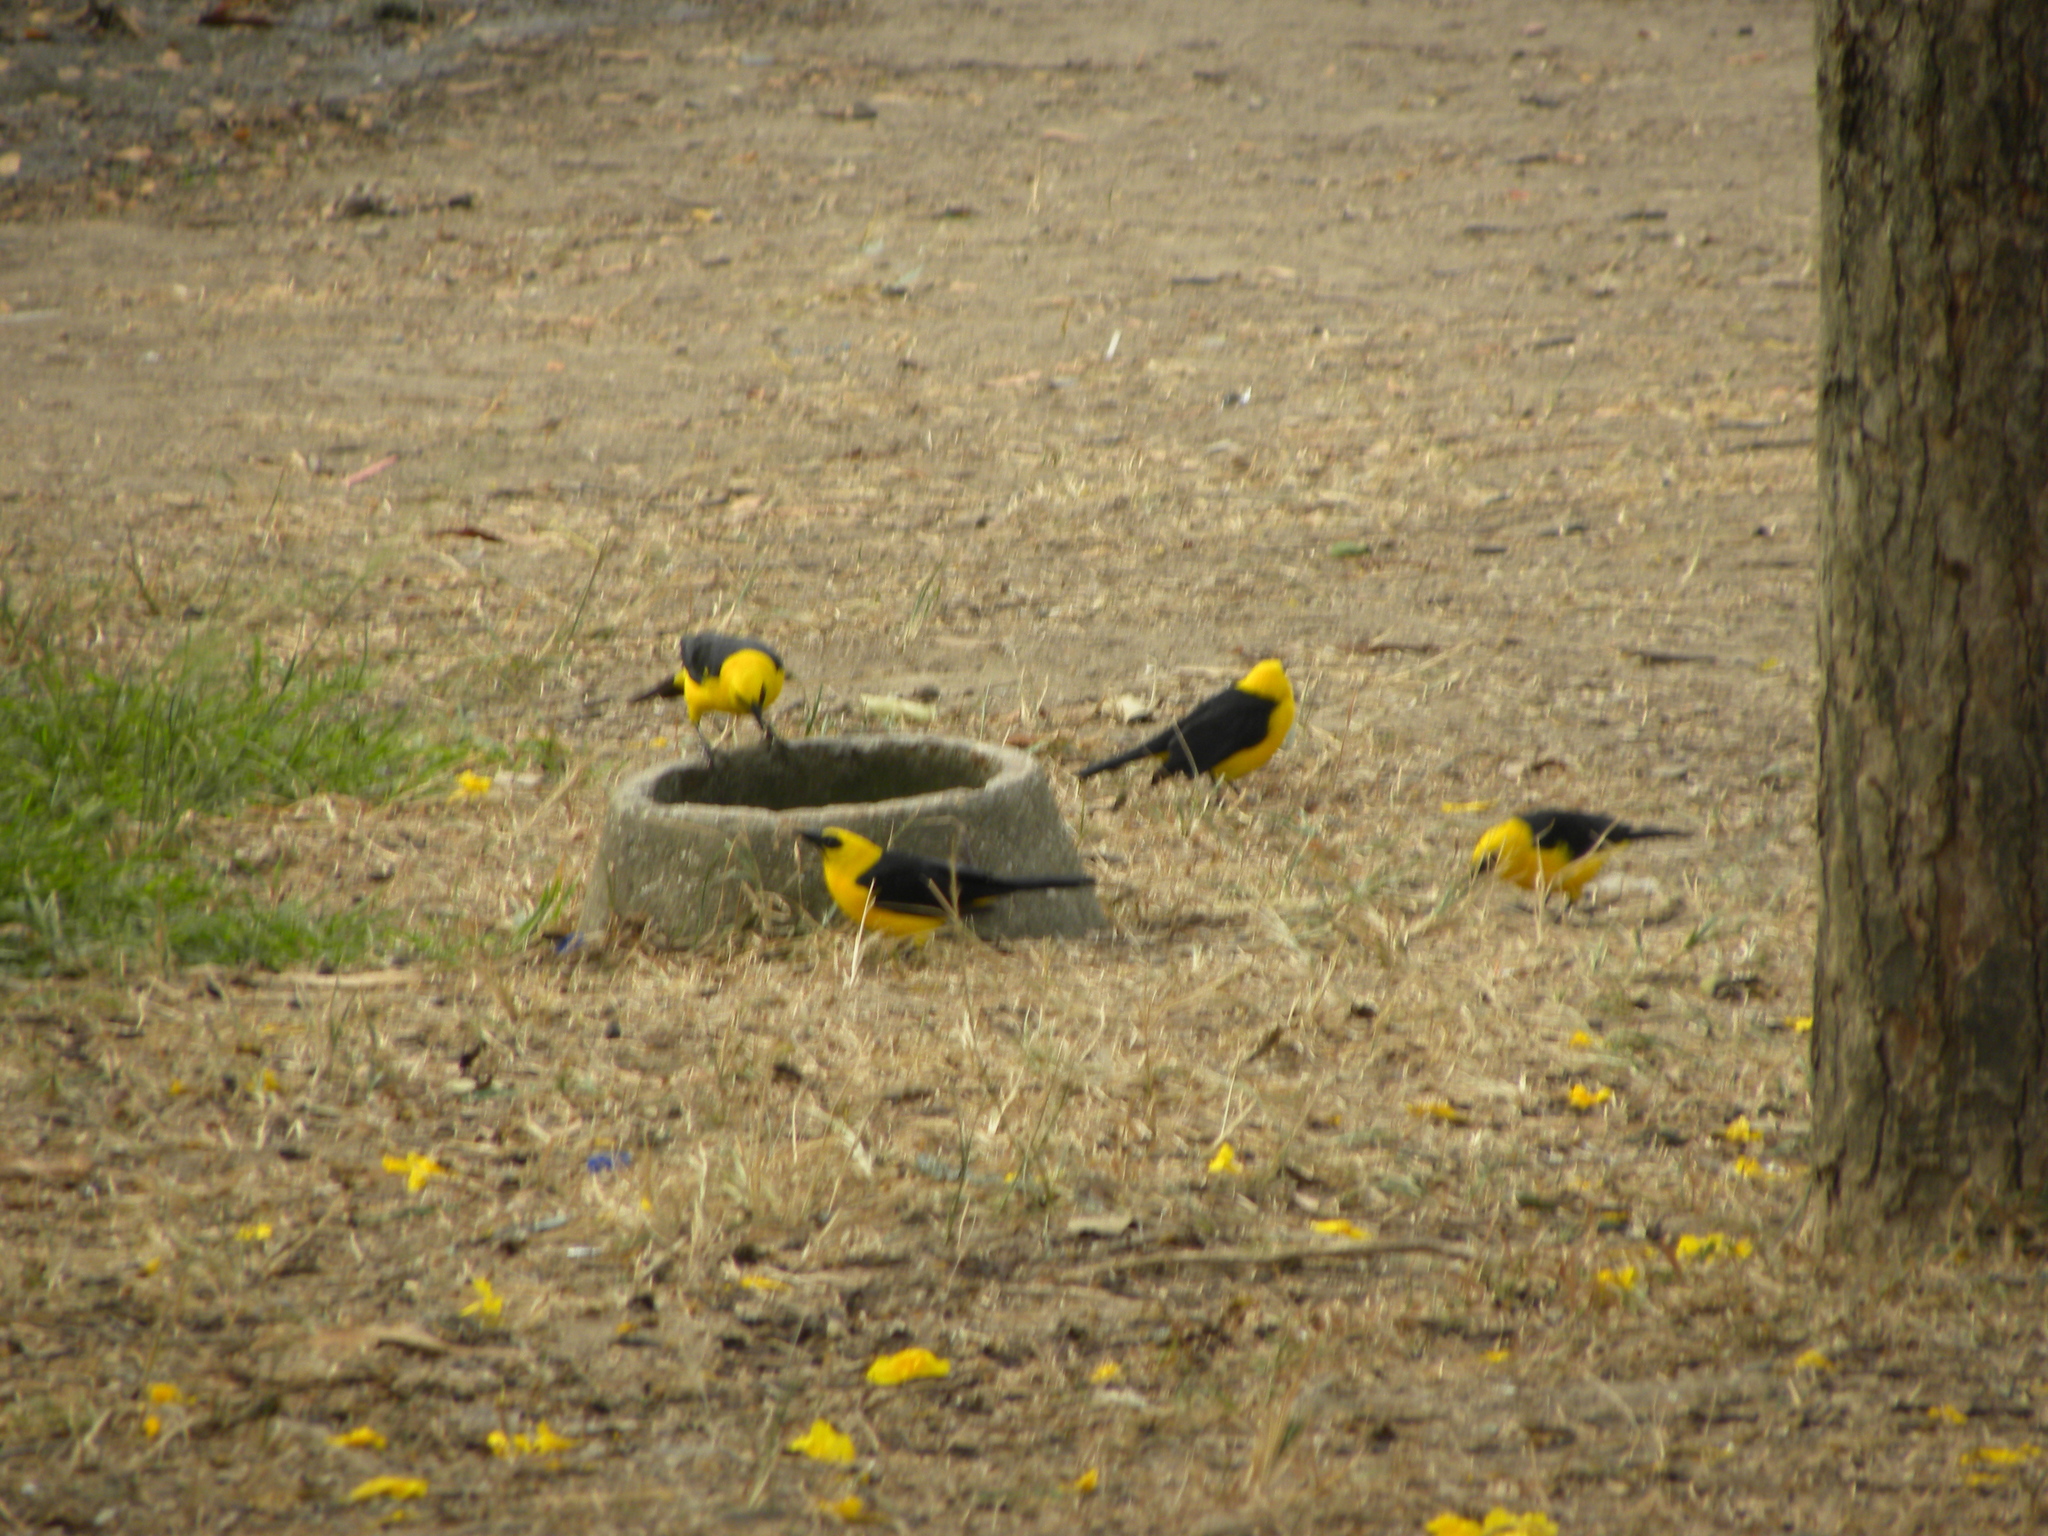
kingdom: Animalia
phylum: Chordata
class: Aves
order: Passeriformes
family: Icteridae
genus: Gymnomystax
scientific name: Gymnomystax mexicanus
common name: Oriole blackbird
